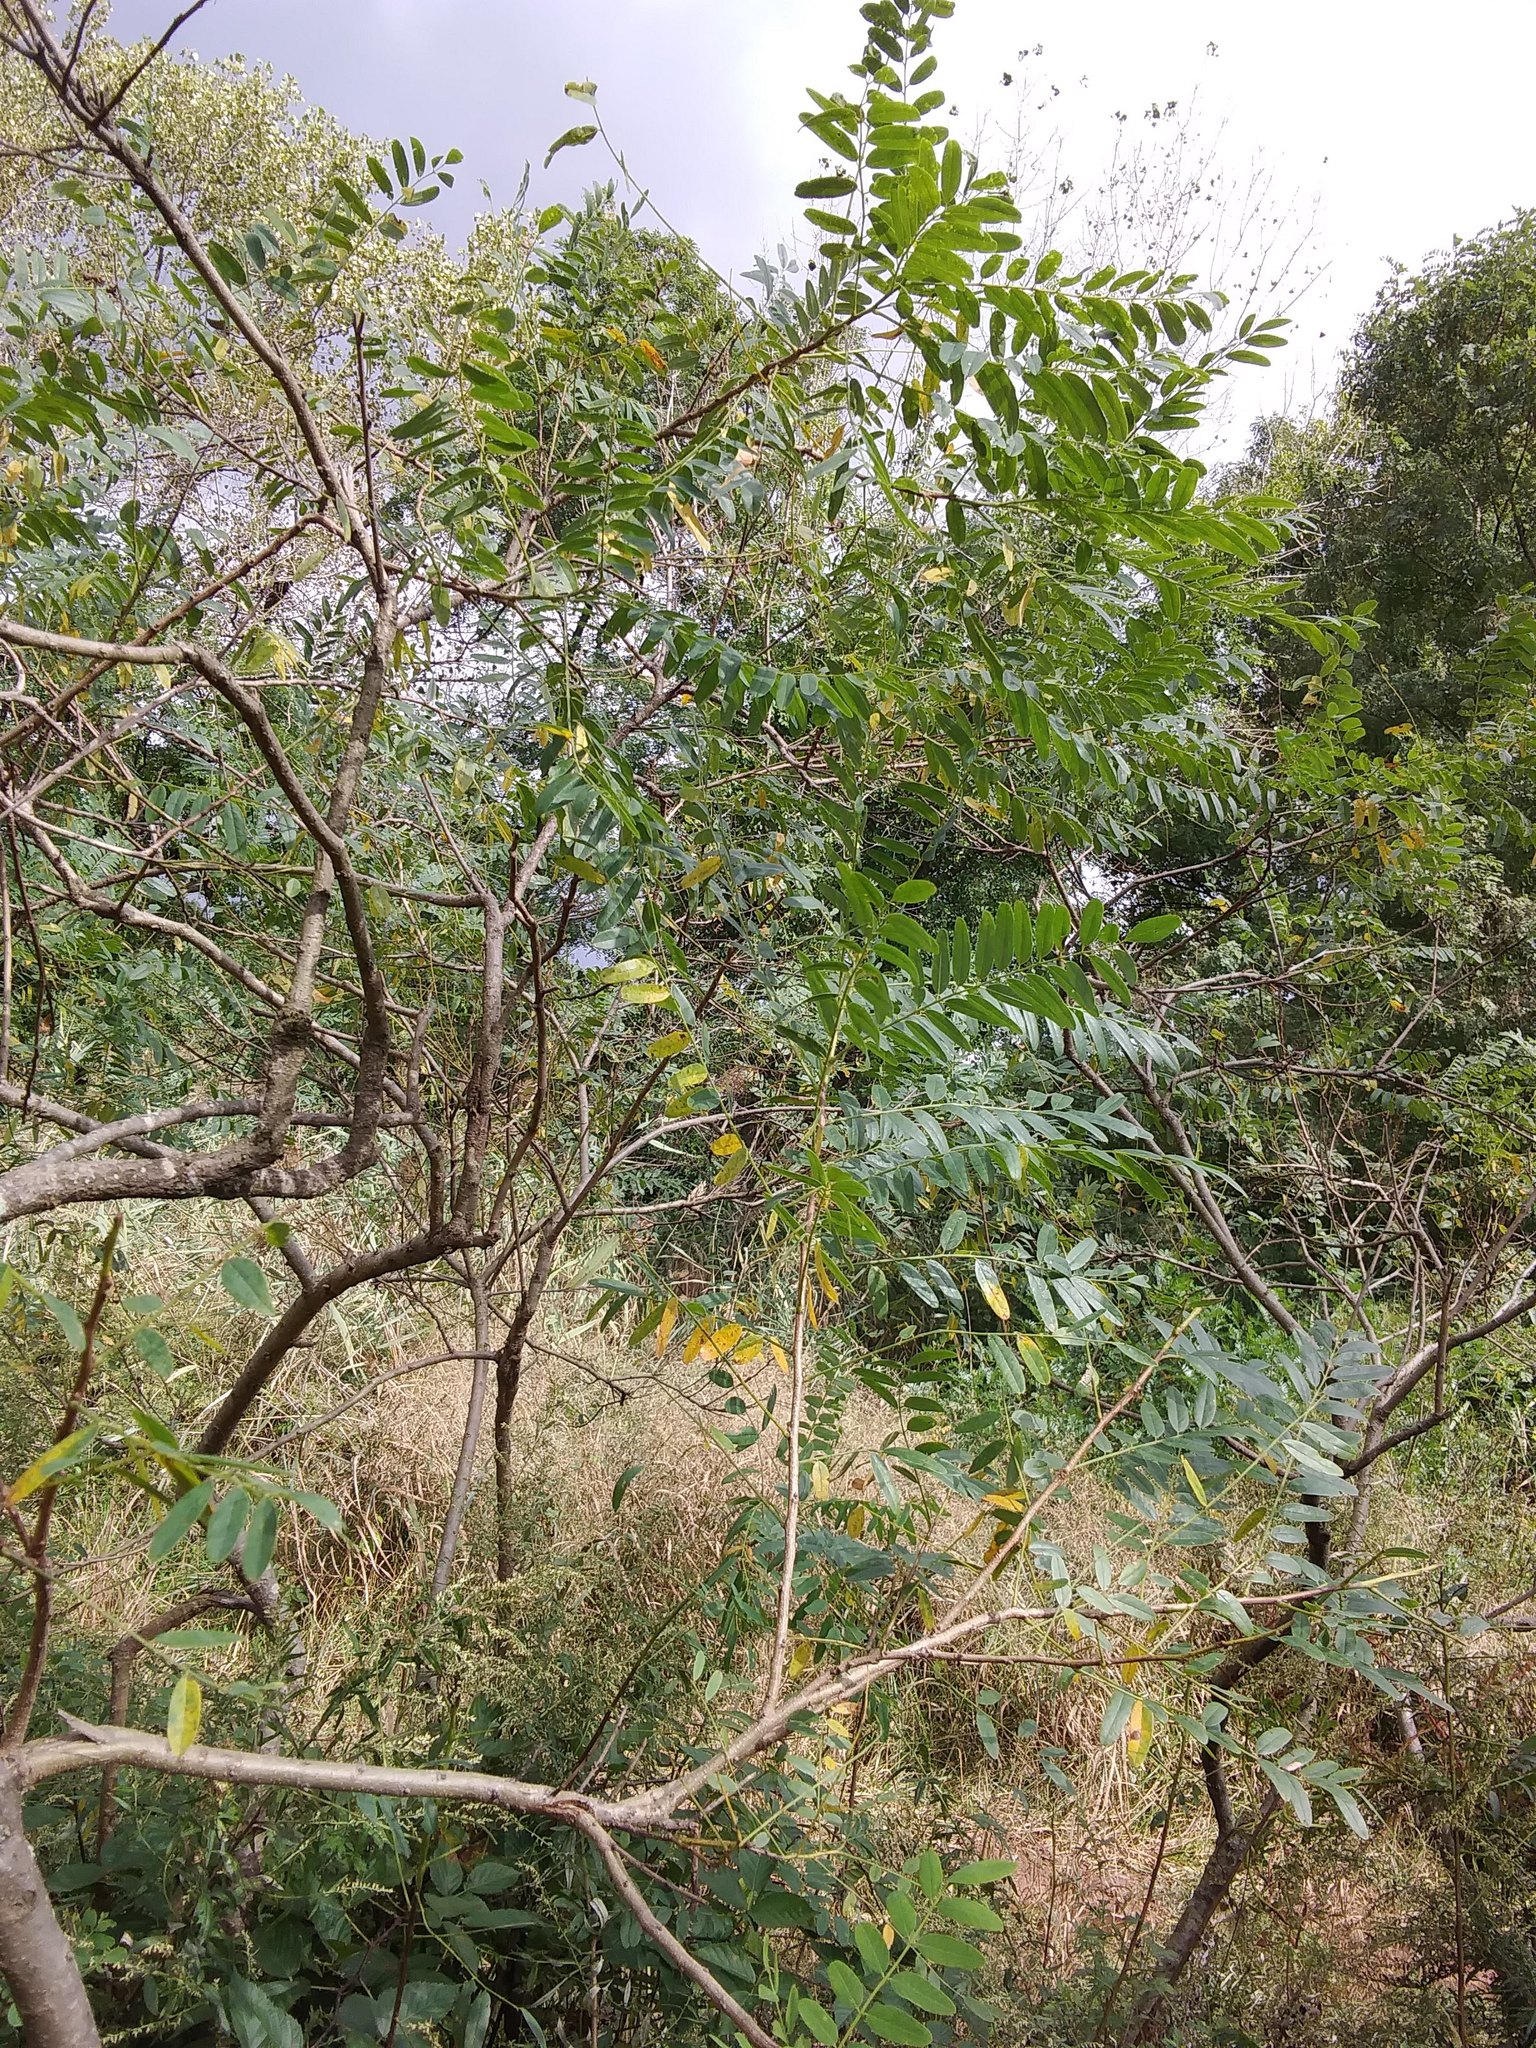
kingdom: Plantae
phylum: Tracheophyta
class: Magnoliopsida
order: Fabales
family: Fabaceae
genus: Gleditsia
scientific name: Gleditsia triacanthos
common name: Common honeylocust
